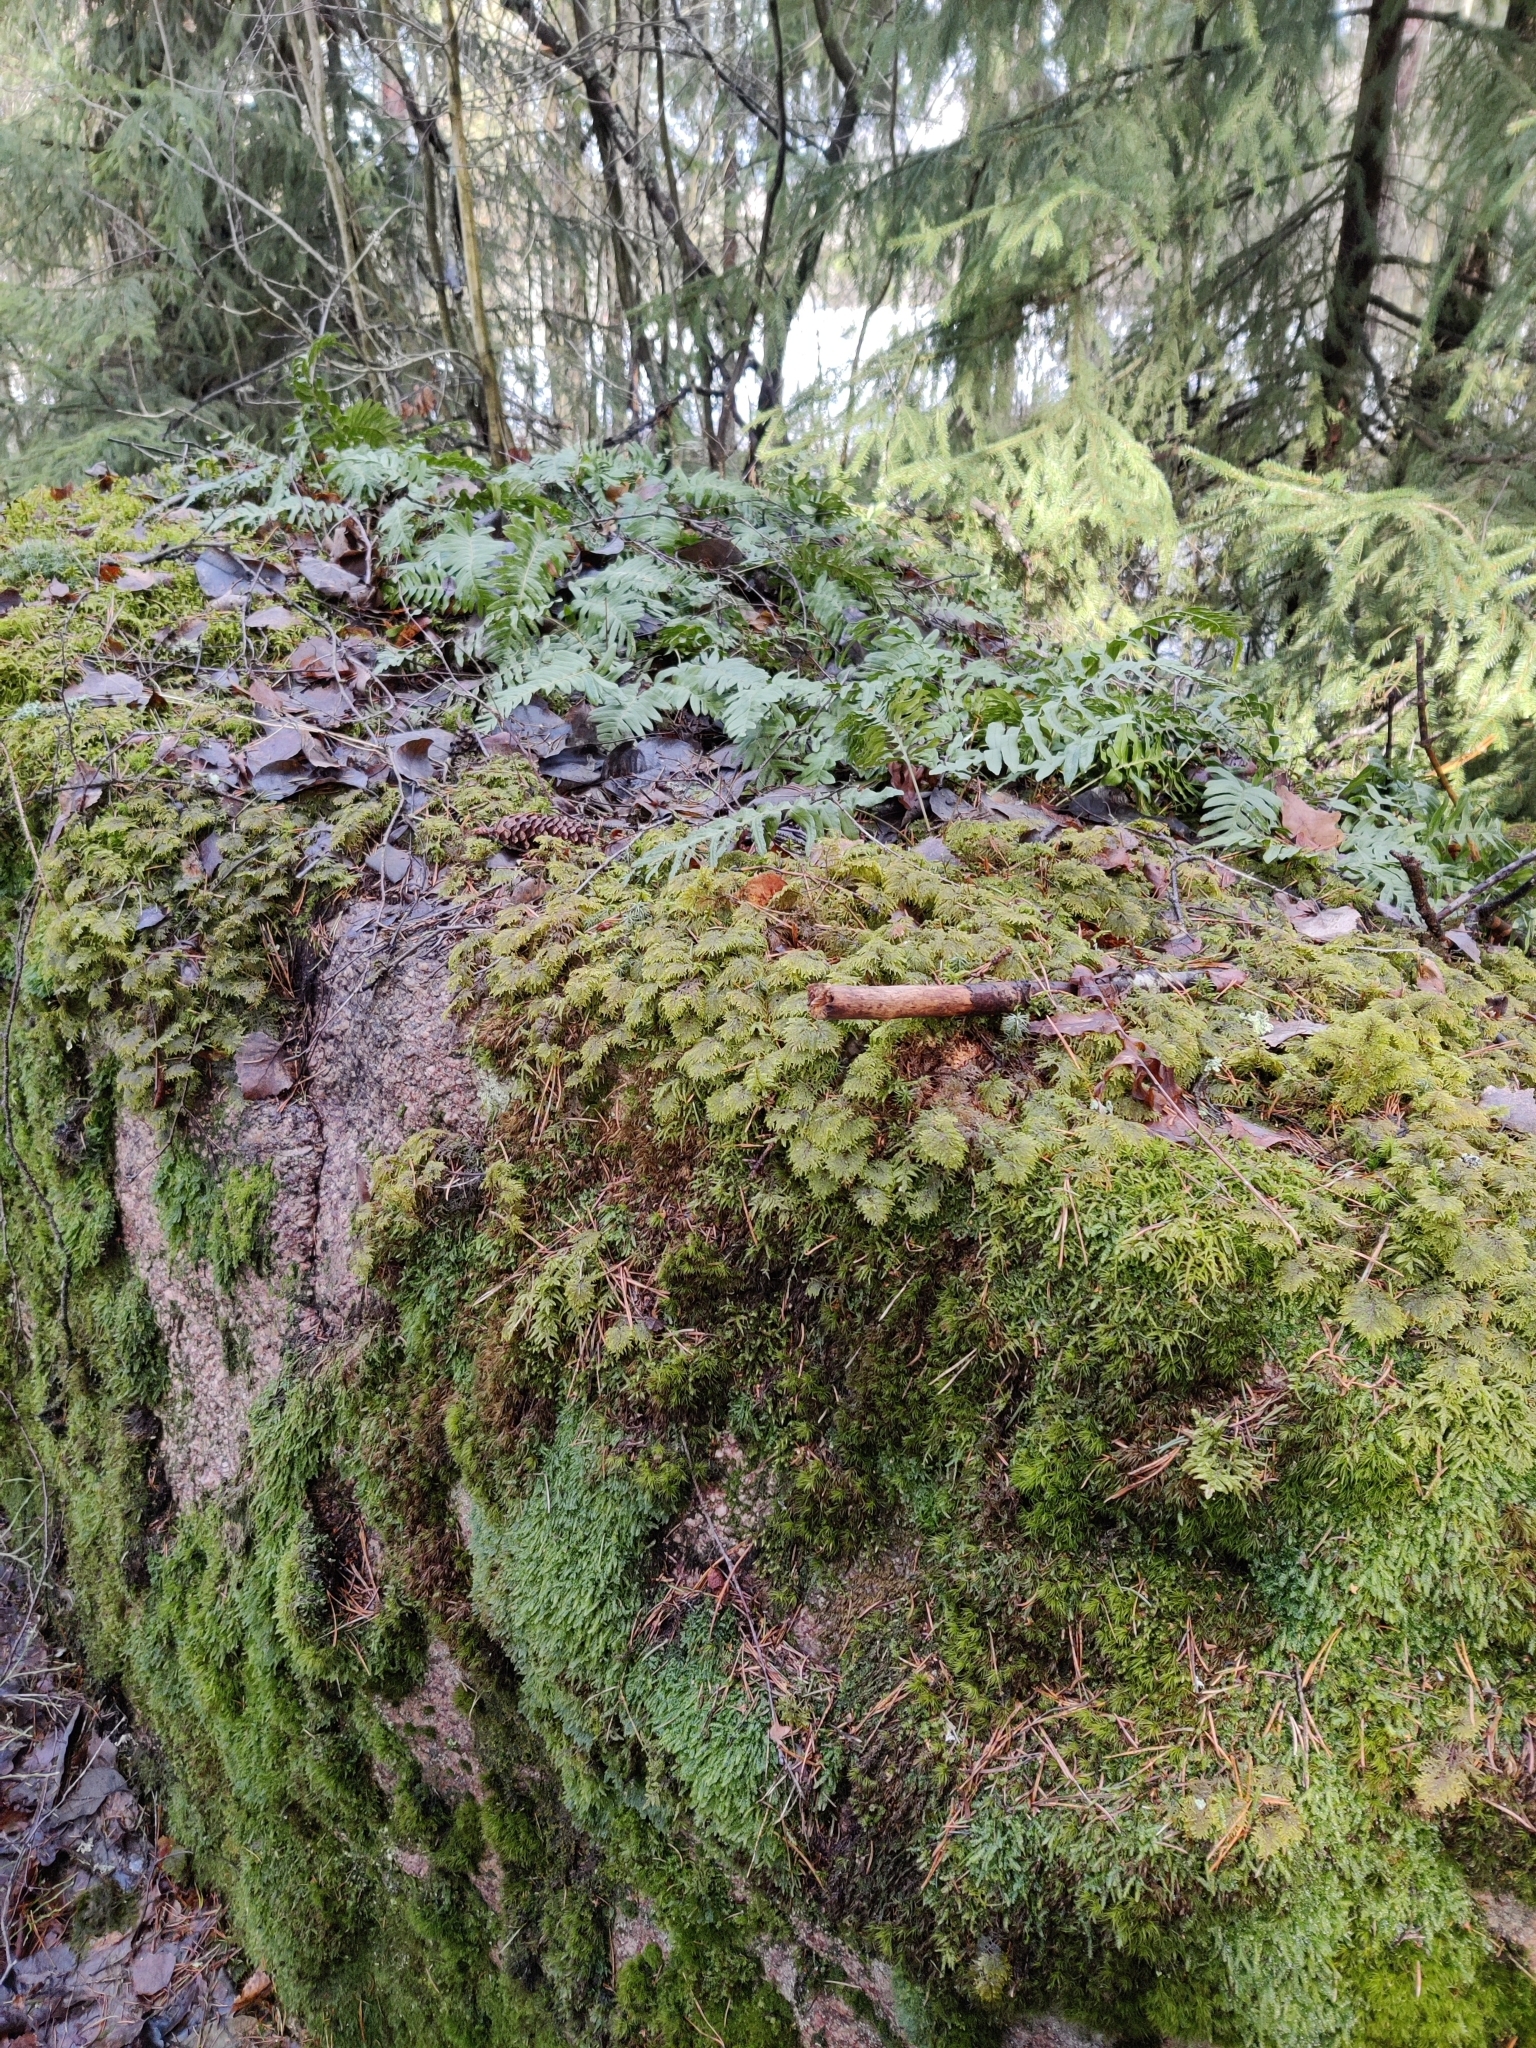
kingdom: Plantae
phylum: Tracheophyta
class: Polypodiopsida
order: Polypodiales
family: Polypodiaceae
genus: Polypodium
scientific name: Polypodium vulgare
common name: Common polypody
